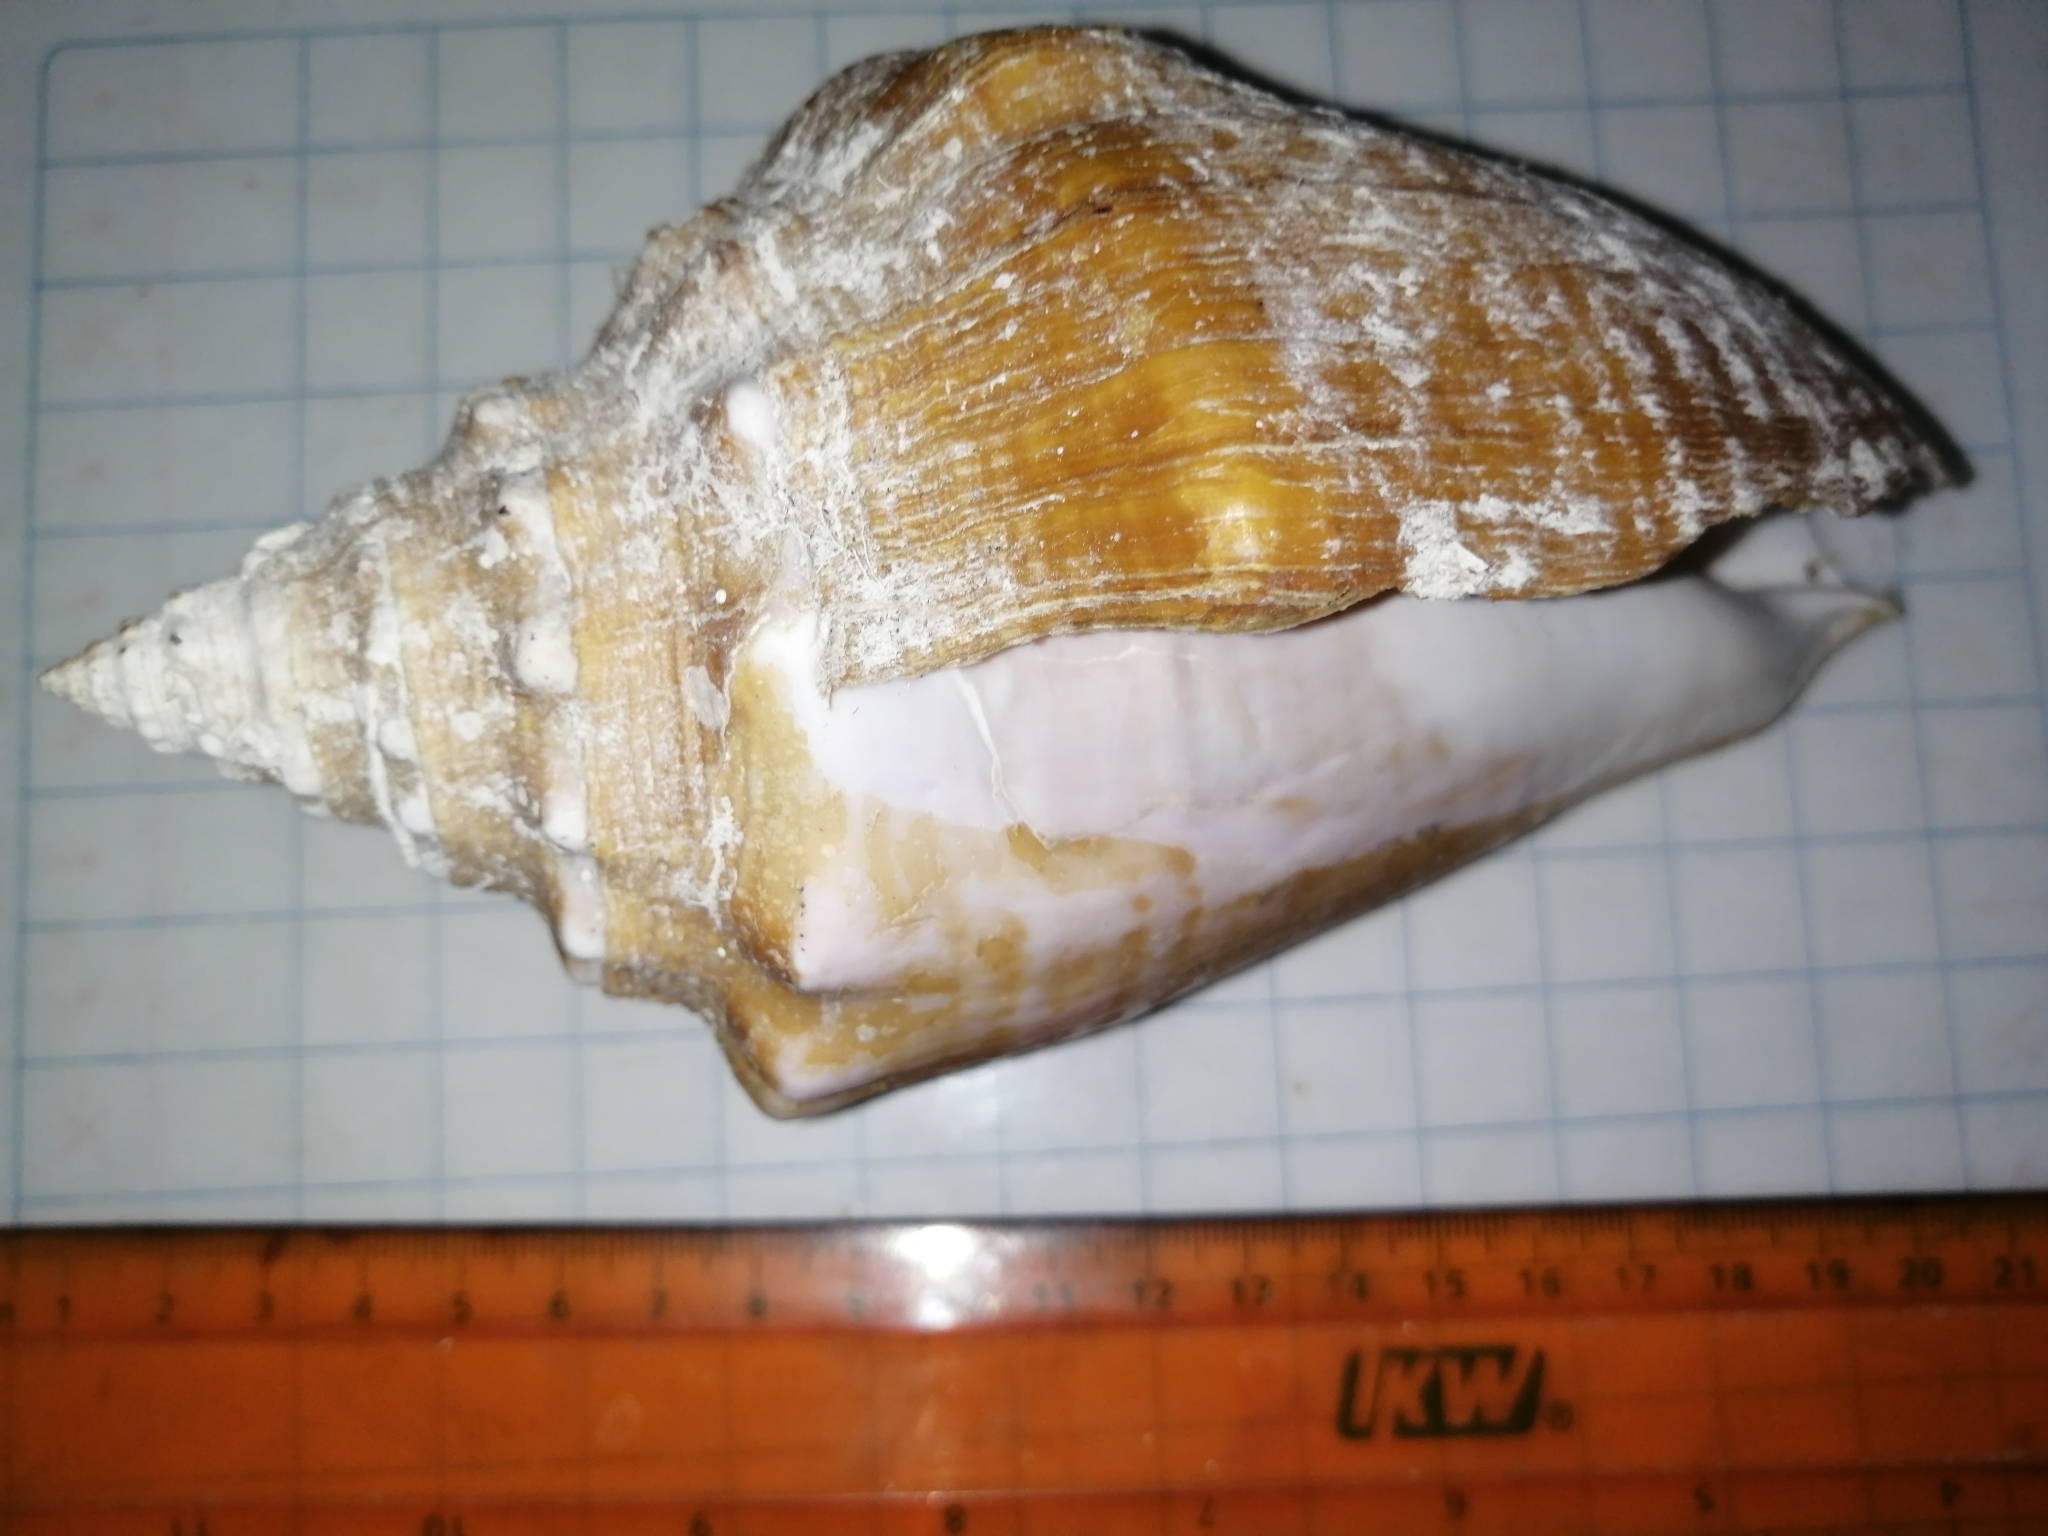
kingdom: Animalia
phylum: Mollusca
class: Gastropoda
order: Littorinimorpha
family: Strombidae
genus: Macrostrombus
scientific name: Macrostrombus costatus
